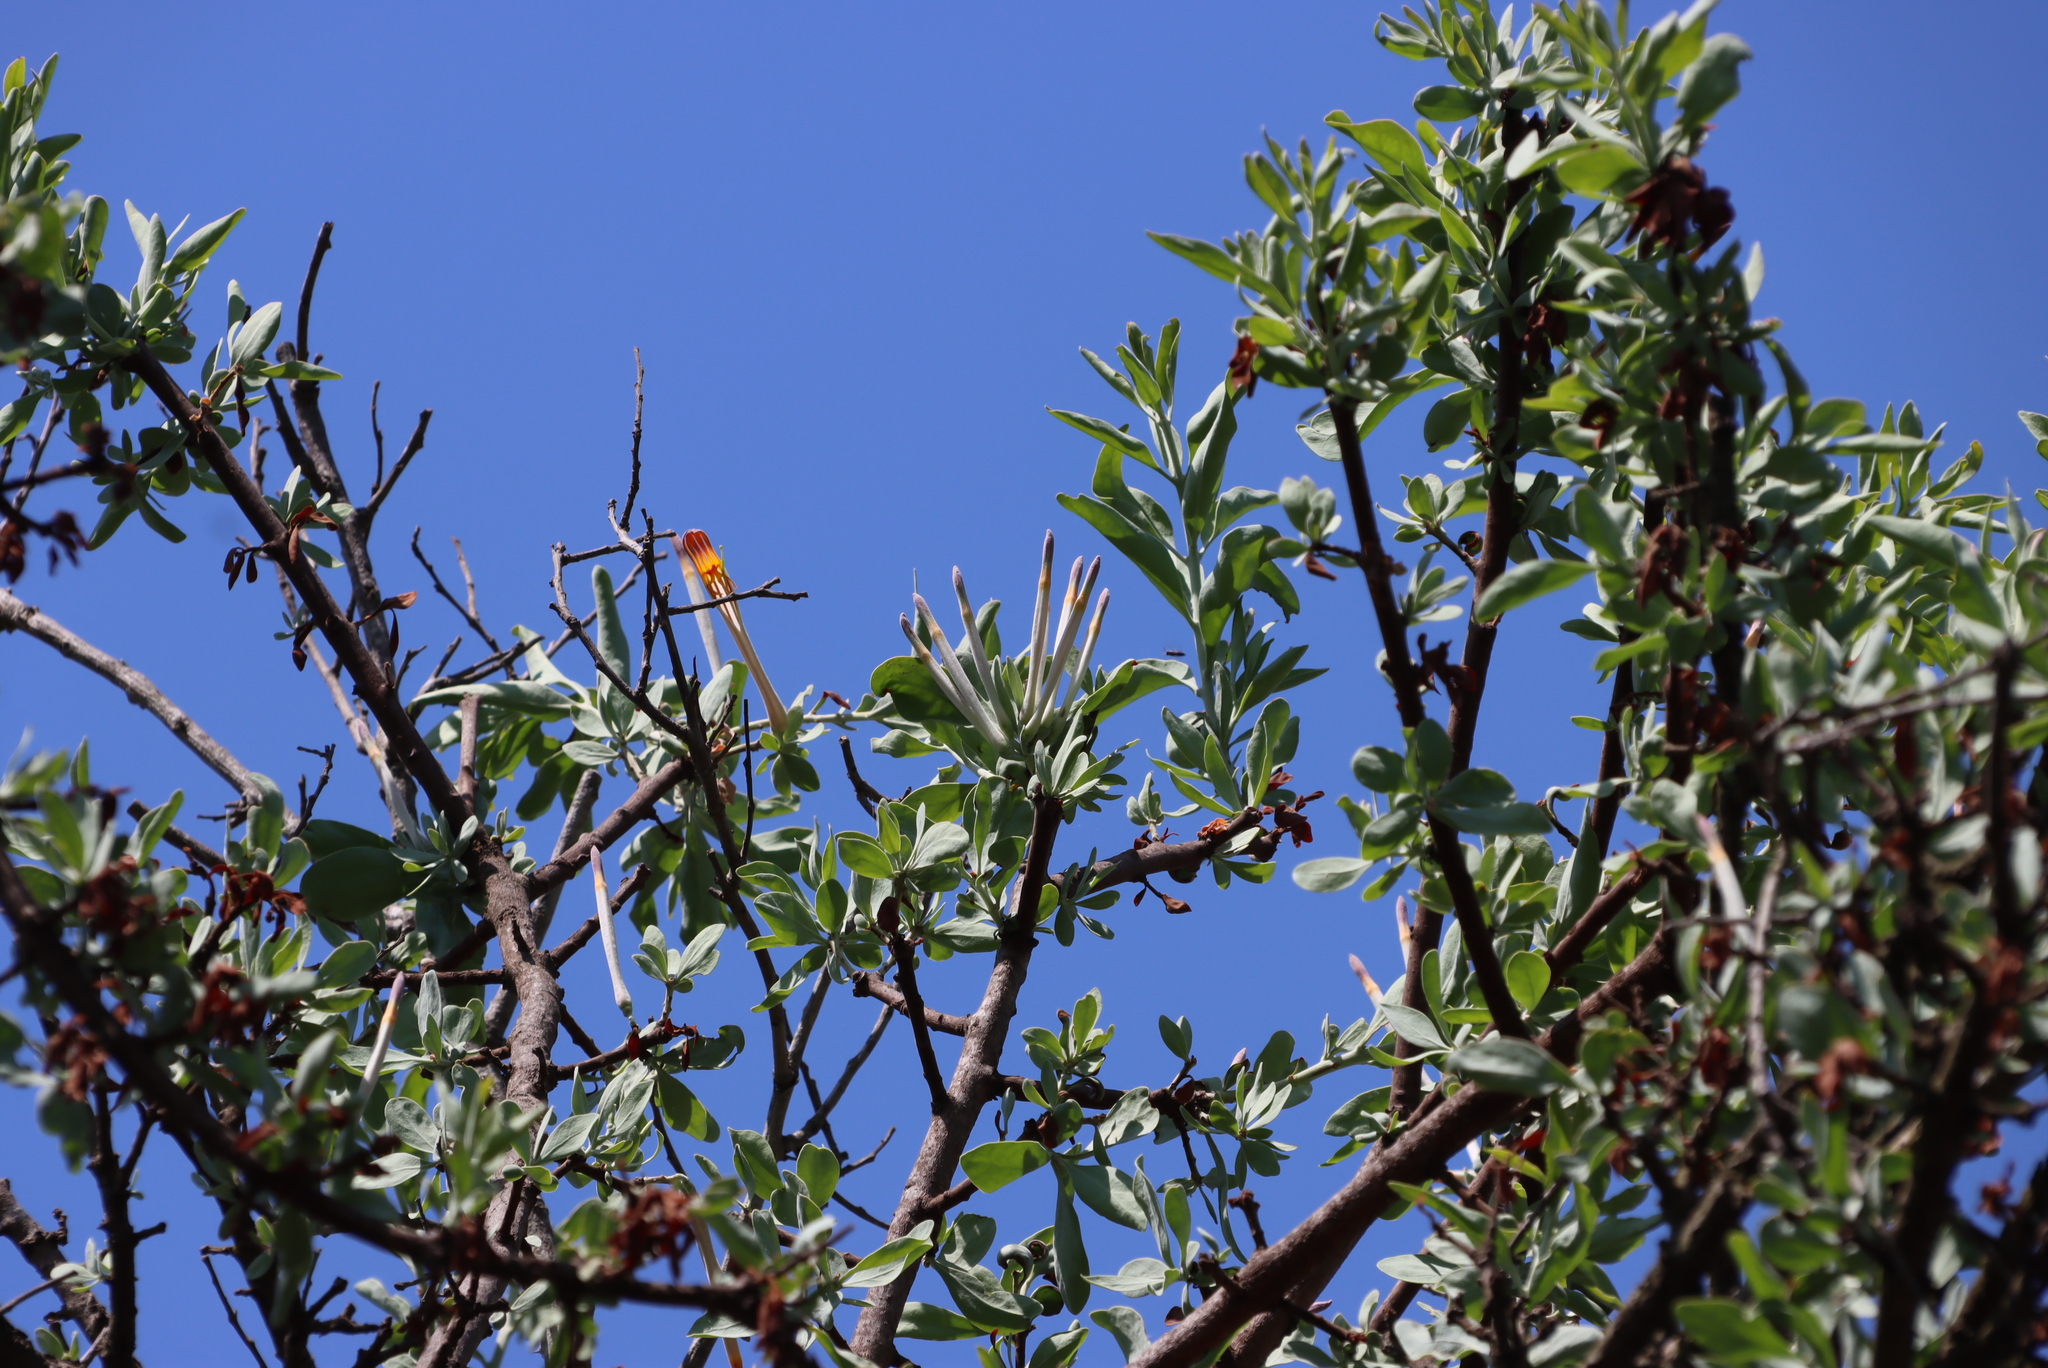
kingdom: Plantae
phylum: Tracheophyta
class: Magnoliopsida
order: Santalales
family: Loranthaceae
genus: Agelanthus
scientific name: Agelanthus natalitius
